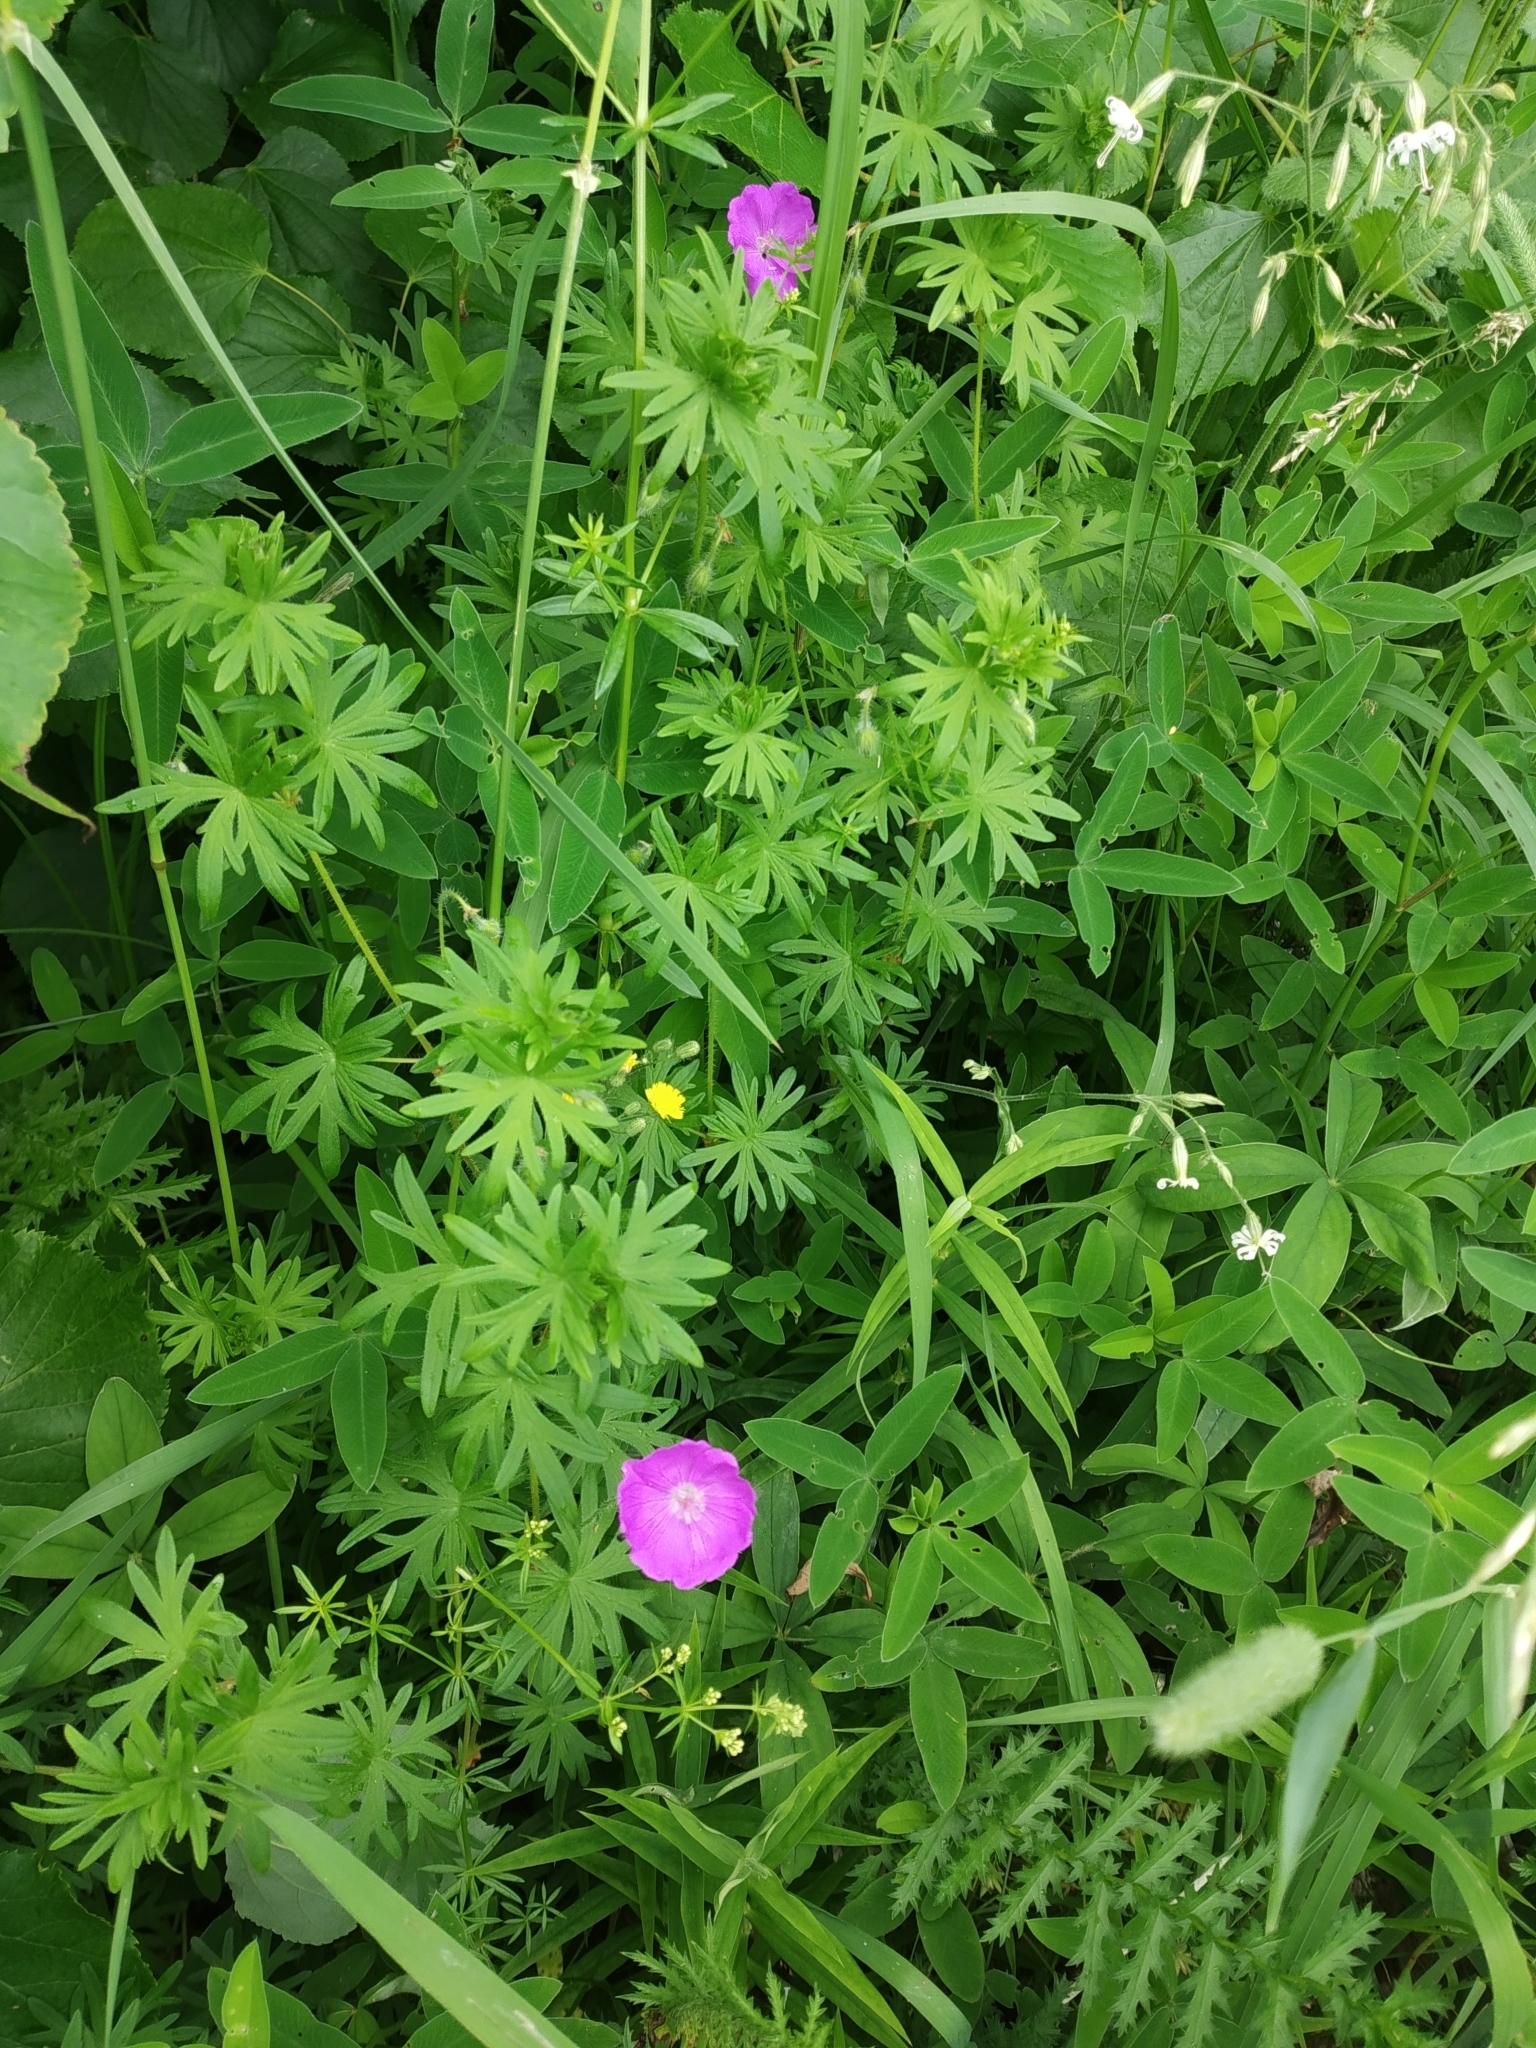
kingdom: Plantae
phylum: Tracheophyta
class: Magnoliopsida
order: Geraniales
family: Geraniaceae
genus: Geranium
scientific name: Geranium sanguineum
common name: Bloody crane's-bill
